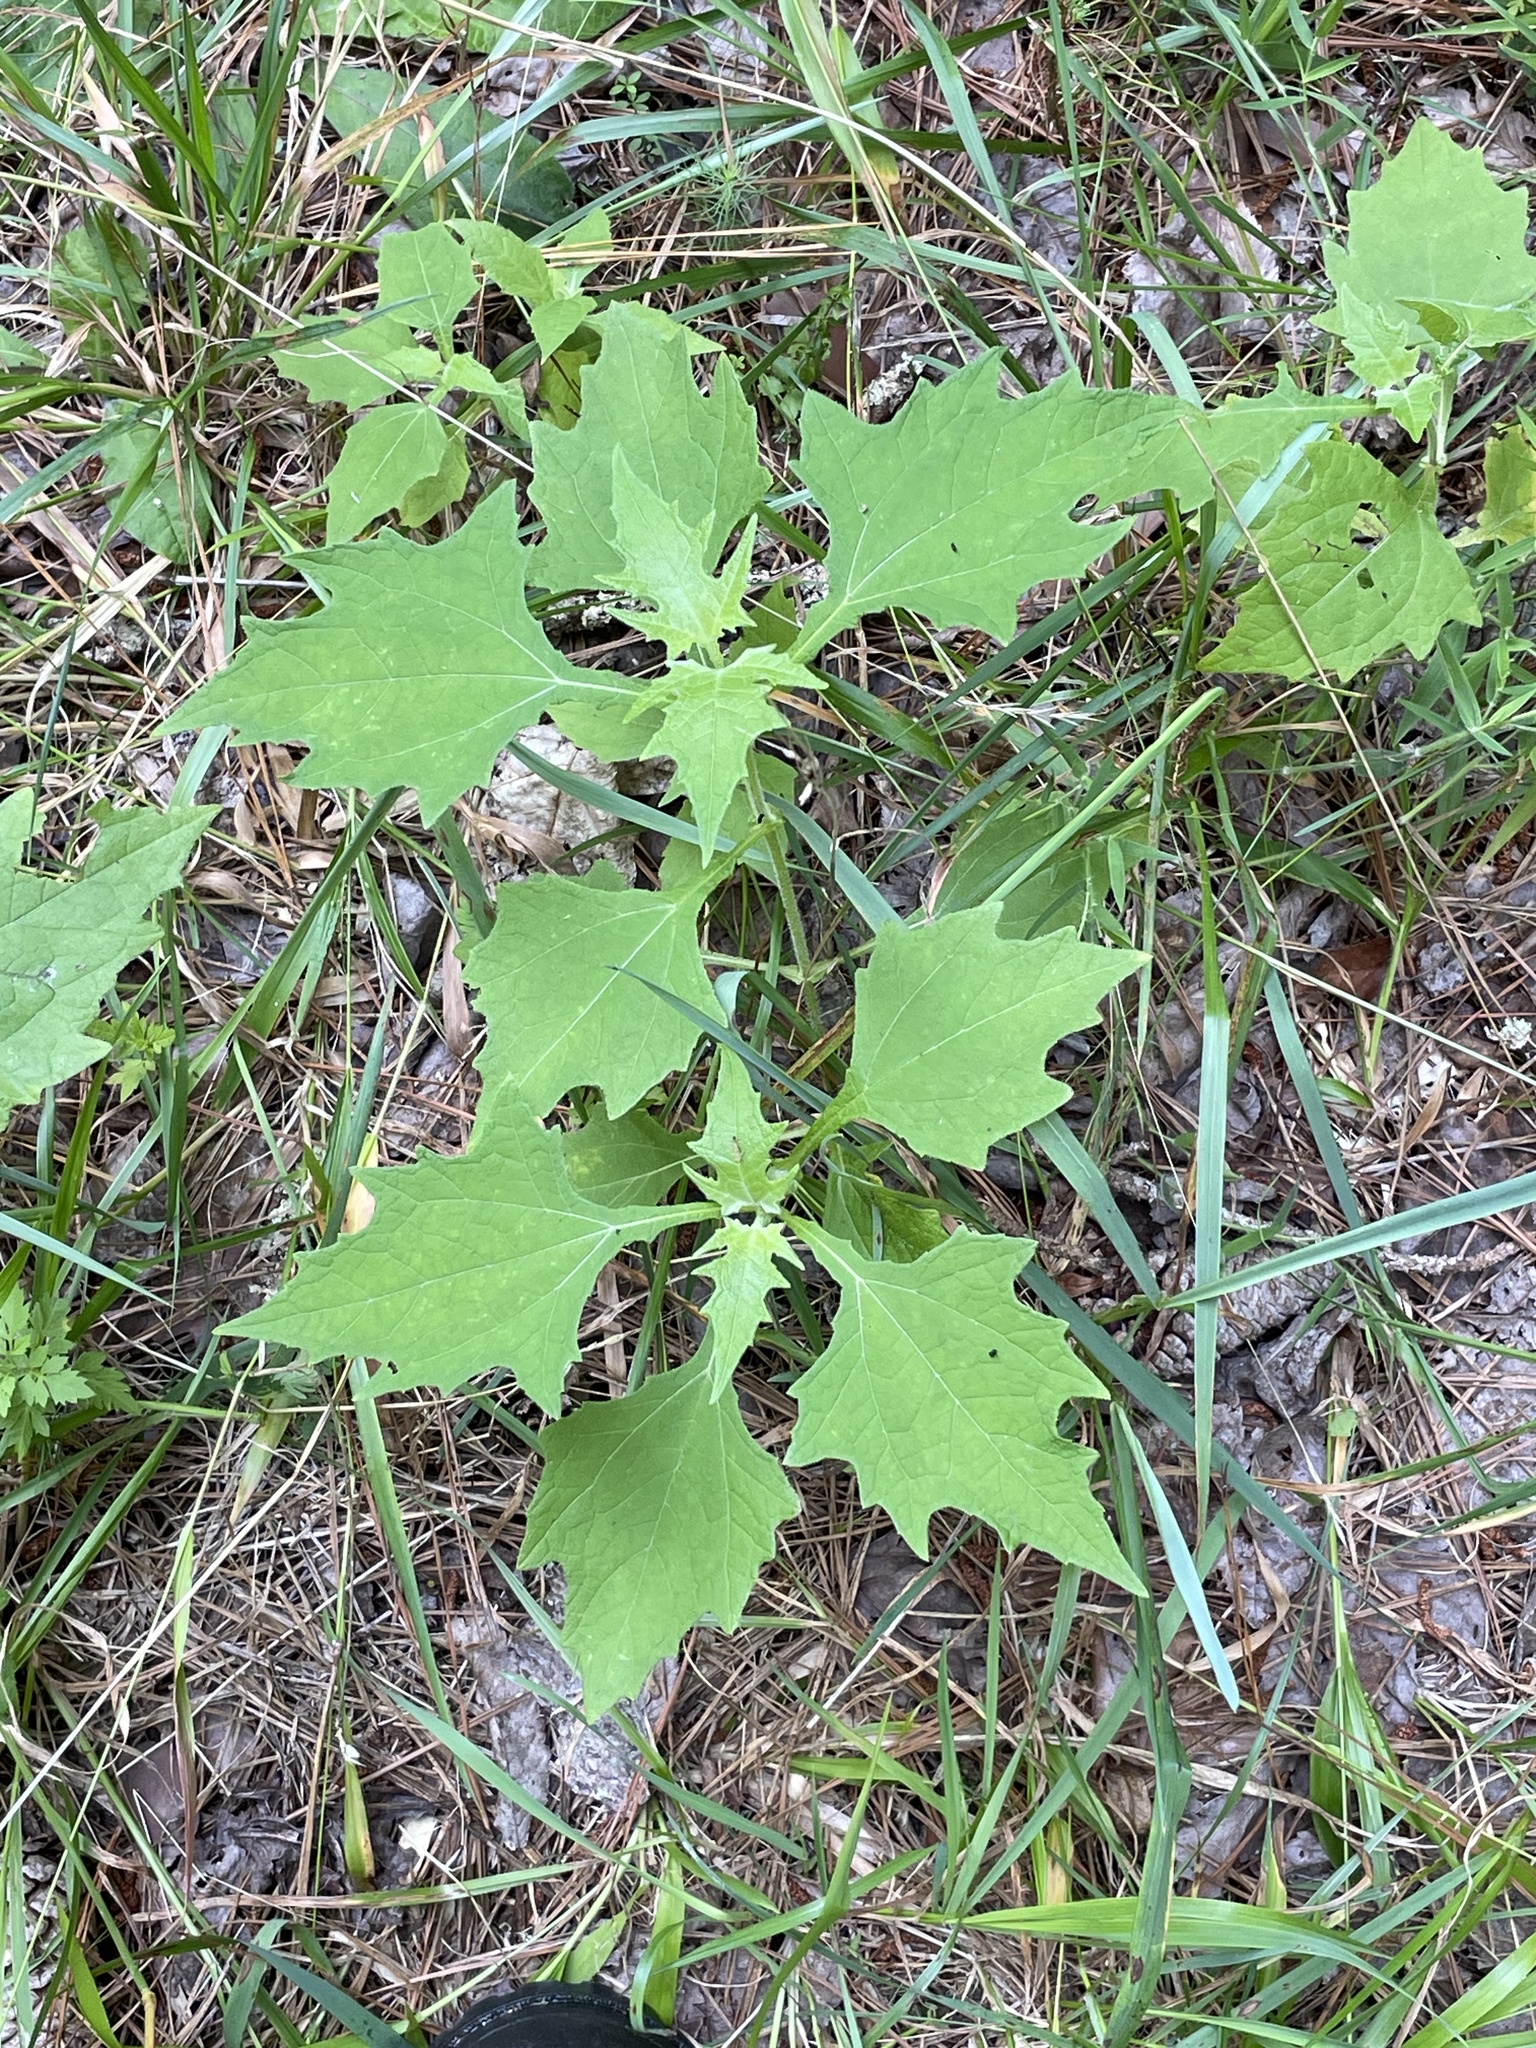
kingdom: Plantae
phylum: Tracheophyta
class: Magnoliopsida
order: Asterales
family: Asteraceae
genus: Smallanthus
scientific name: Smallanthus uvedalia
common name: Bear's-foot
